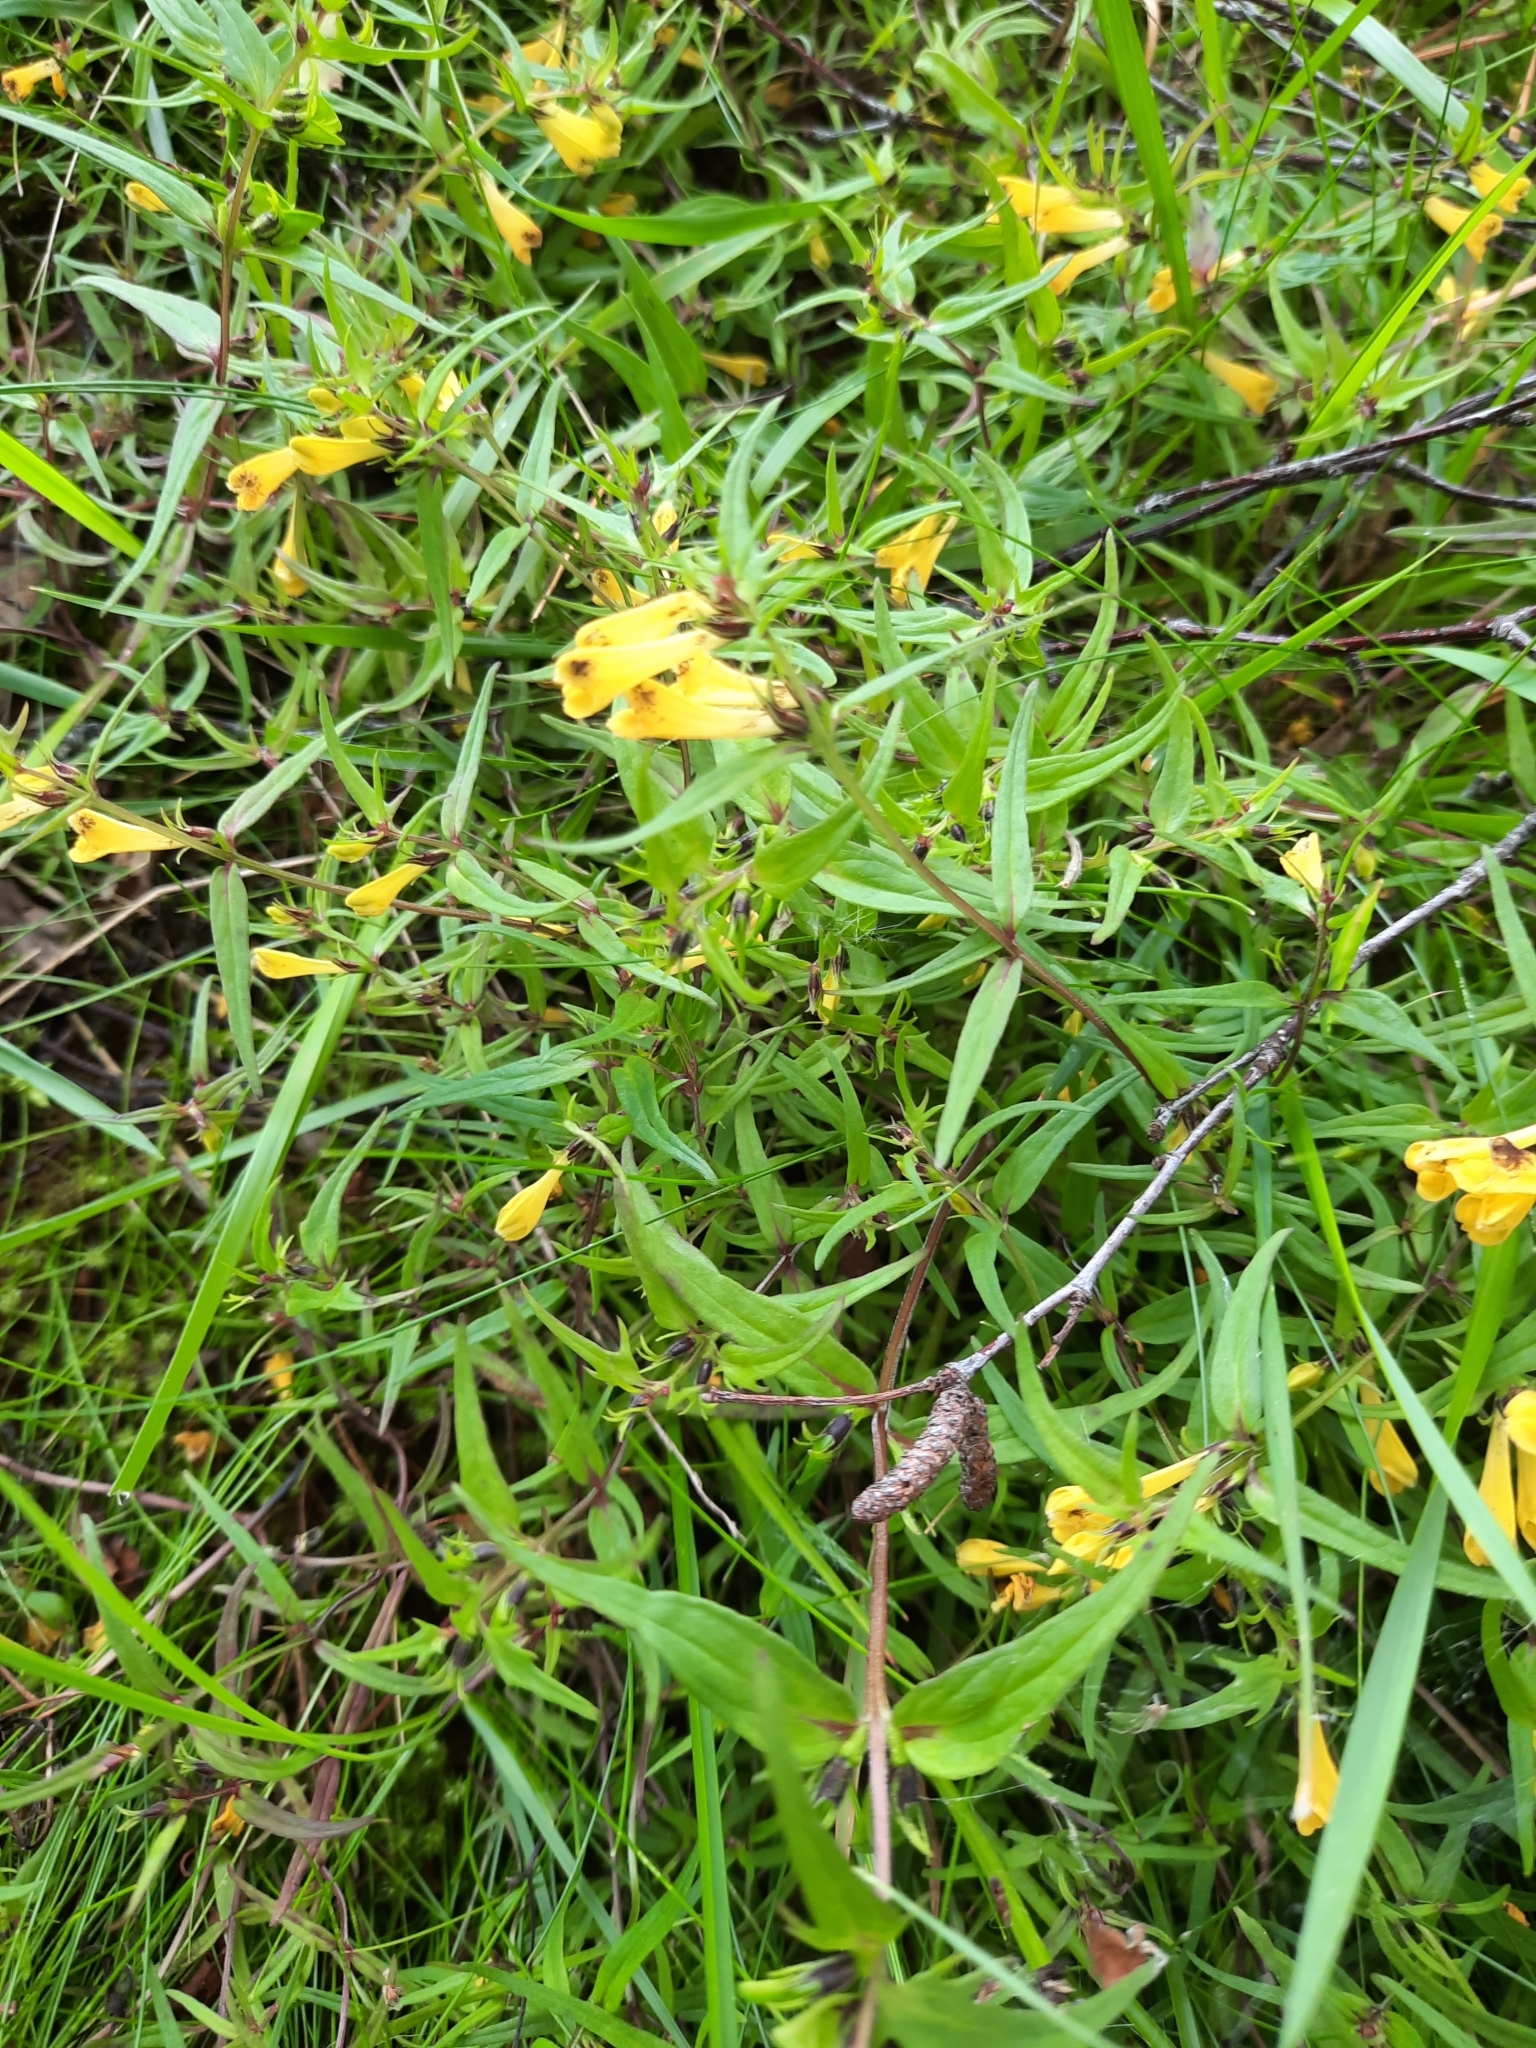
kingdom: Plantae
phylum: Tracheophyta
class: Magnoliopsida
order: Lamiales
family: Orobanchaceae
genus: Melampyrum
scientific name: Melampyrum pratense
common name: Common cow-wheat
